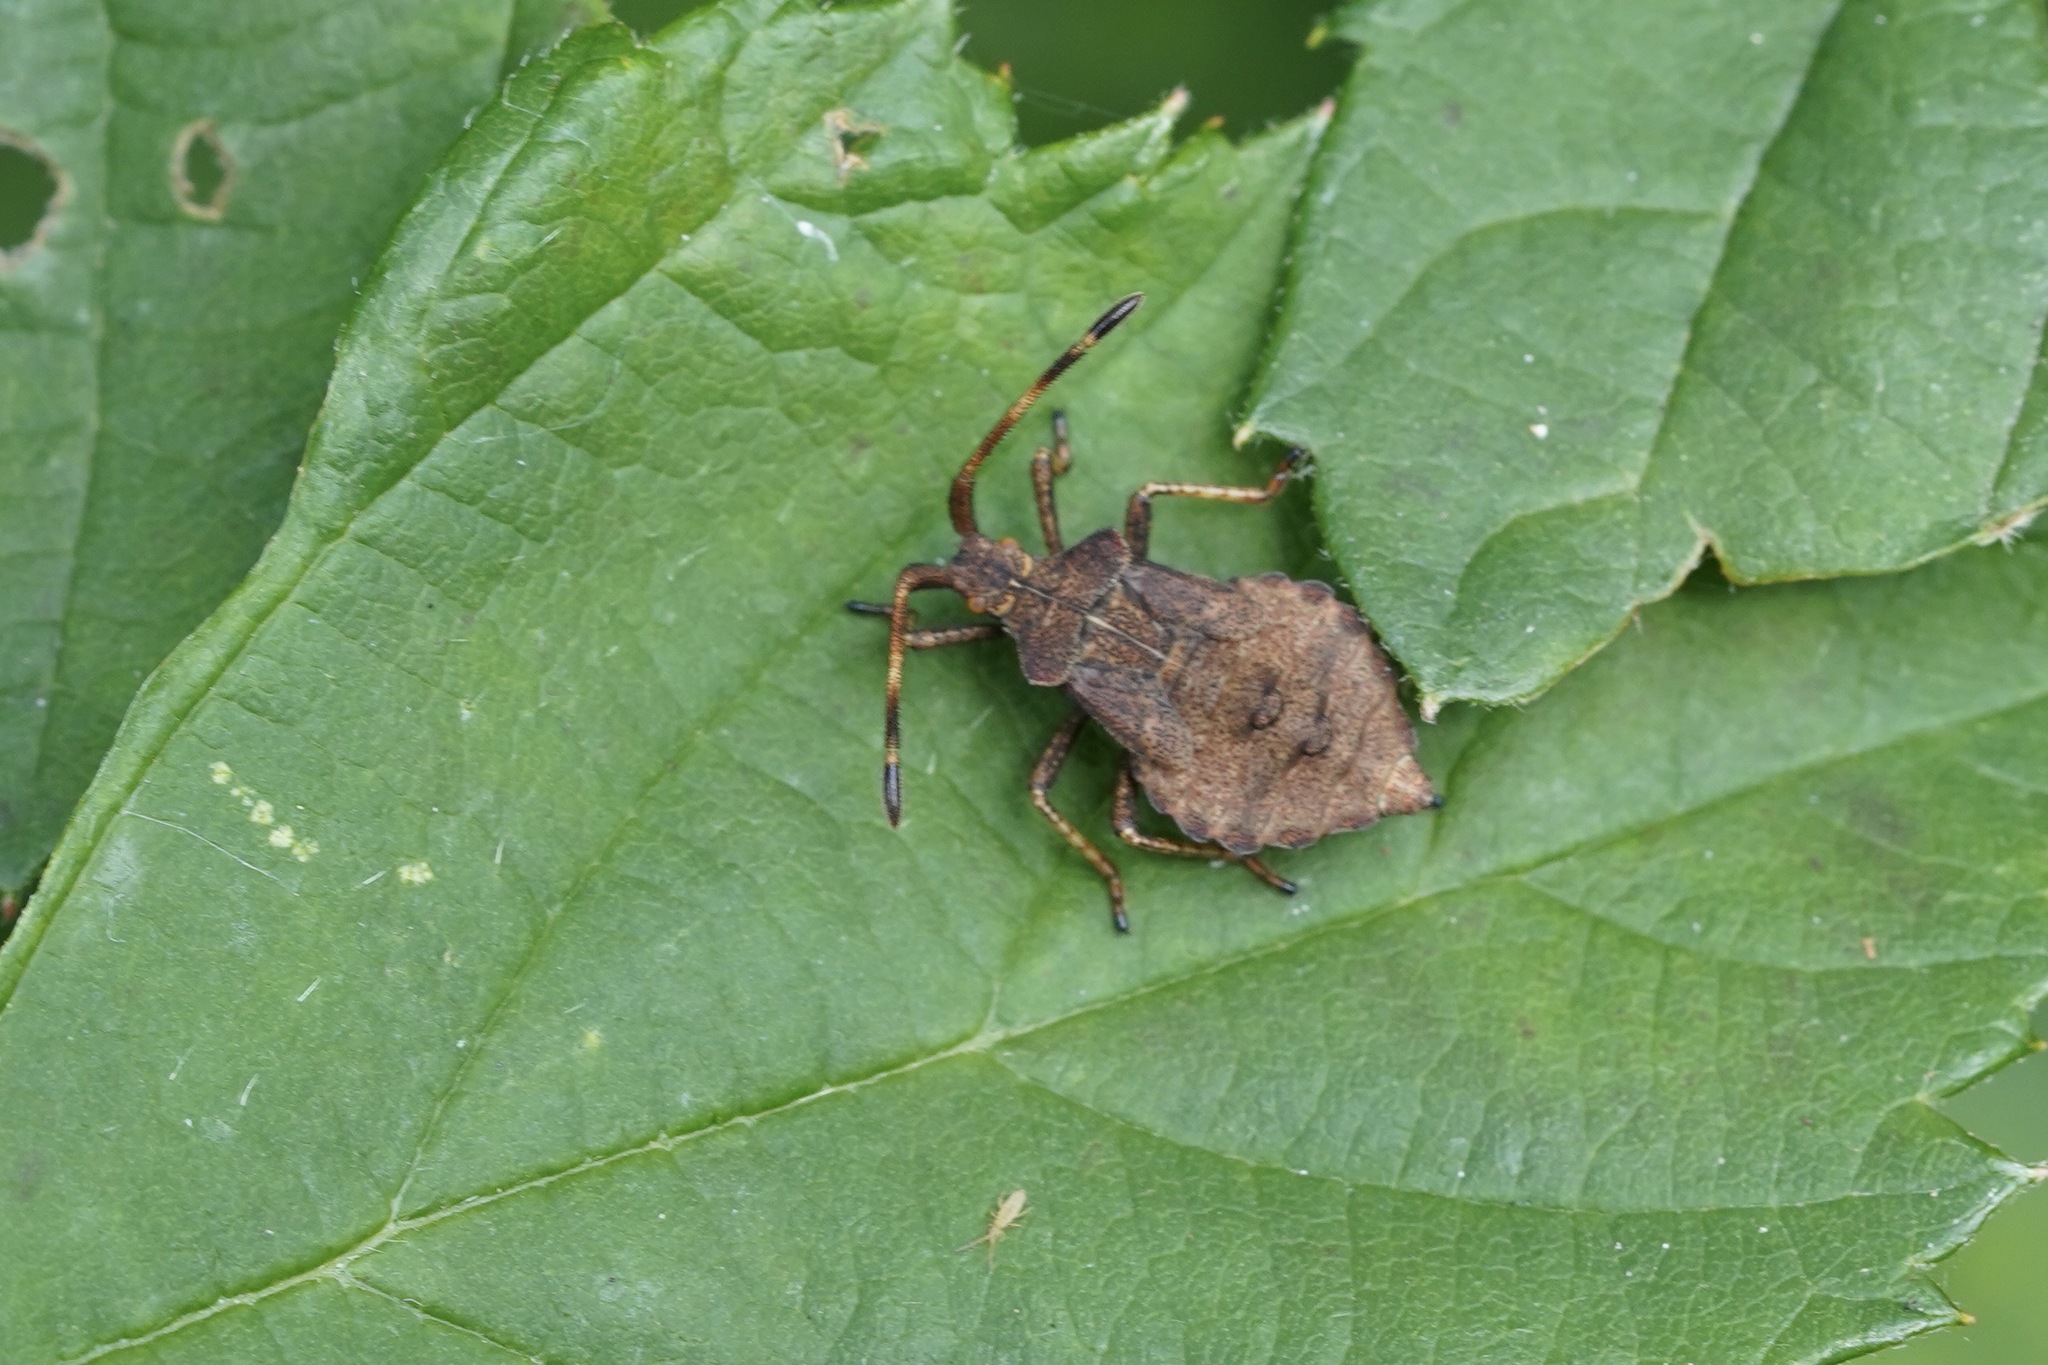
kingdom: Animalia
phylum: Arthropoda
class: Insecta
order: Hemiptera
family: Coreidae
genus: Coreus
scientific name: Coreus marginatus
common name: Dock bug
